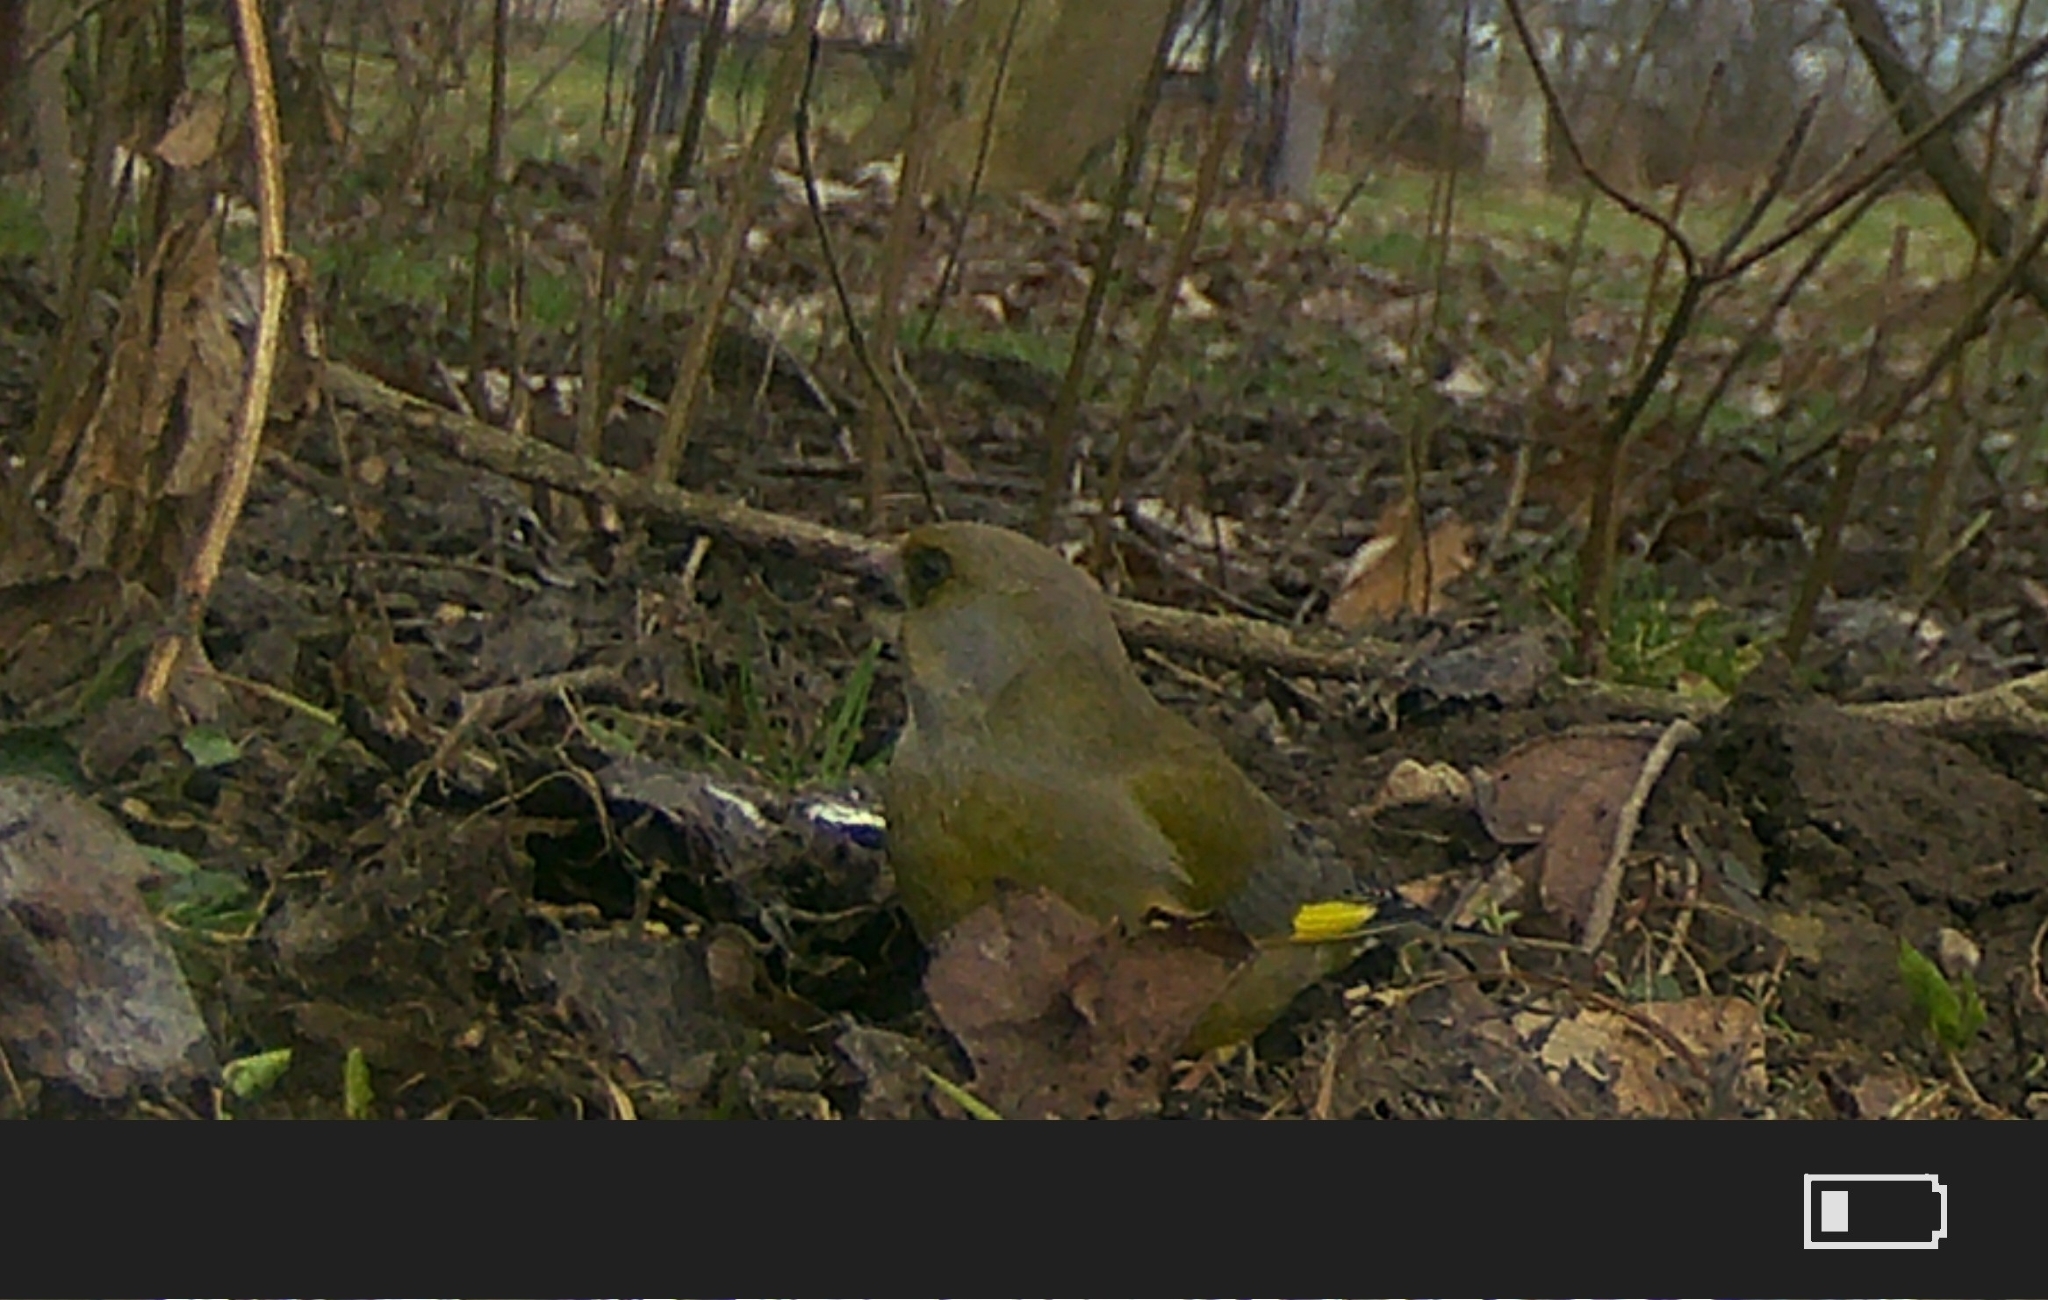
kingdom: Plantae
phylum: Tracheophyta
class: Liliopsida
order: Poales
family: Poaceae
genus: Chloris
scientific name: Chloris chloris
